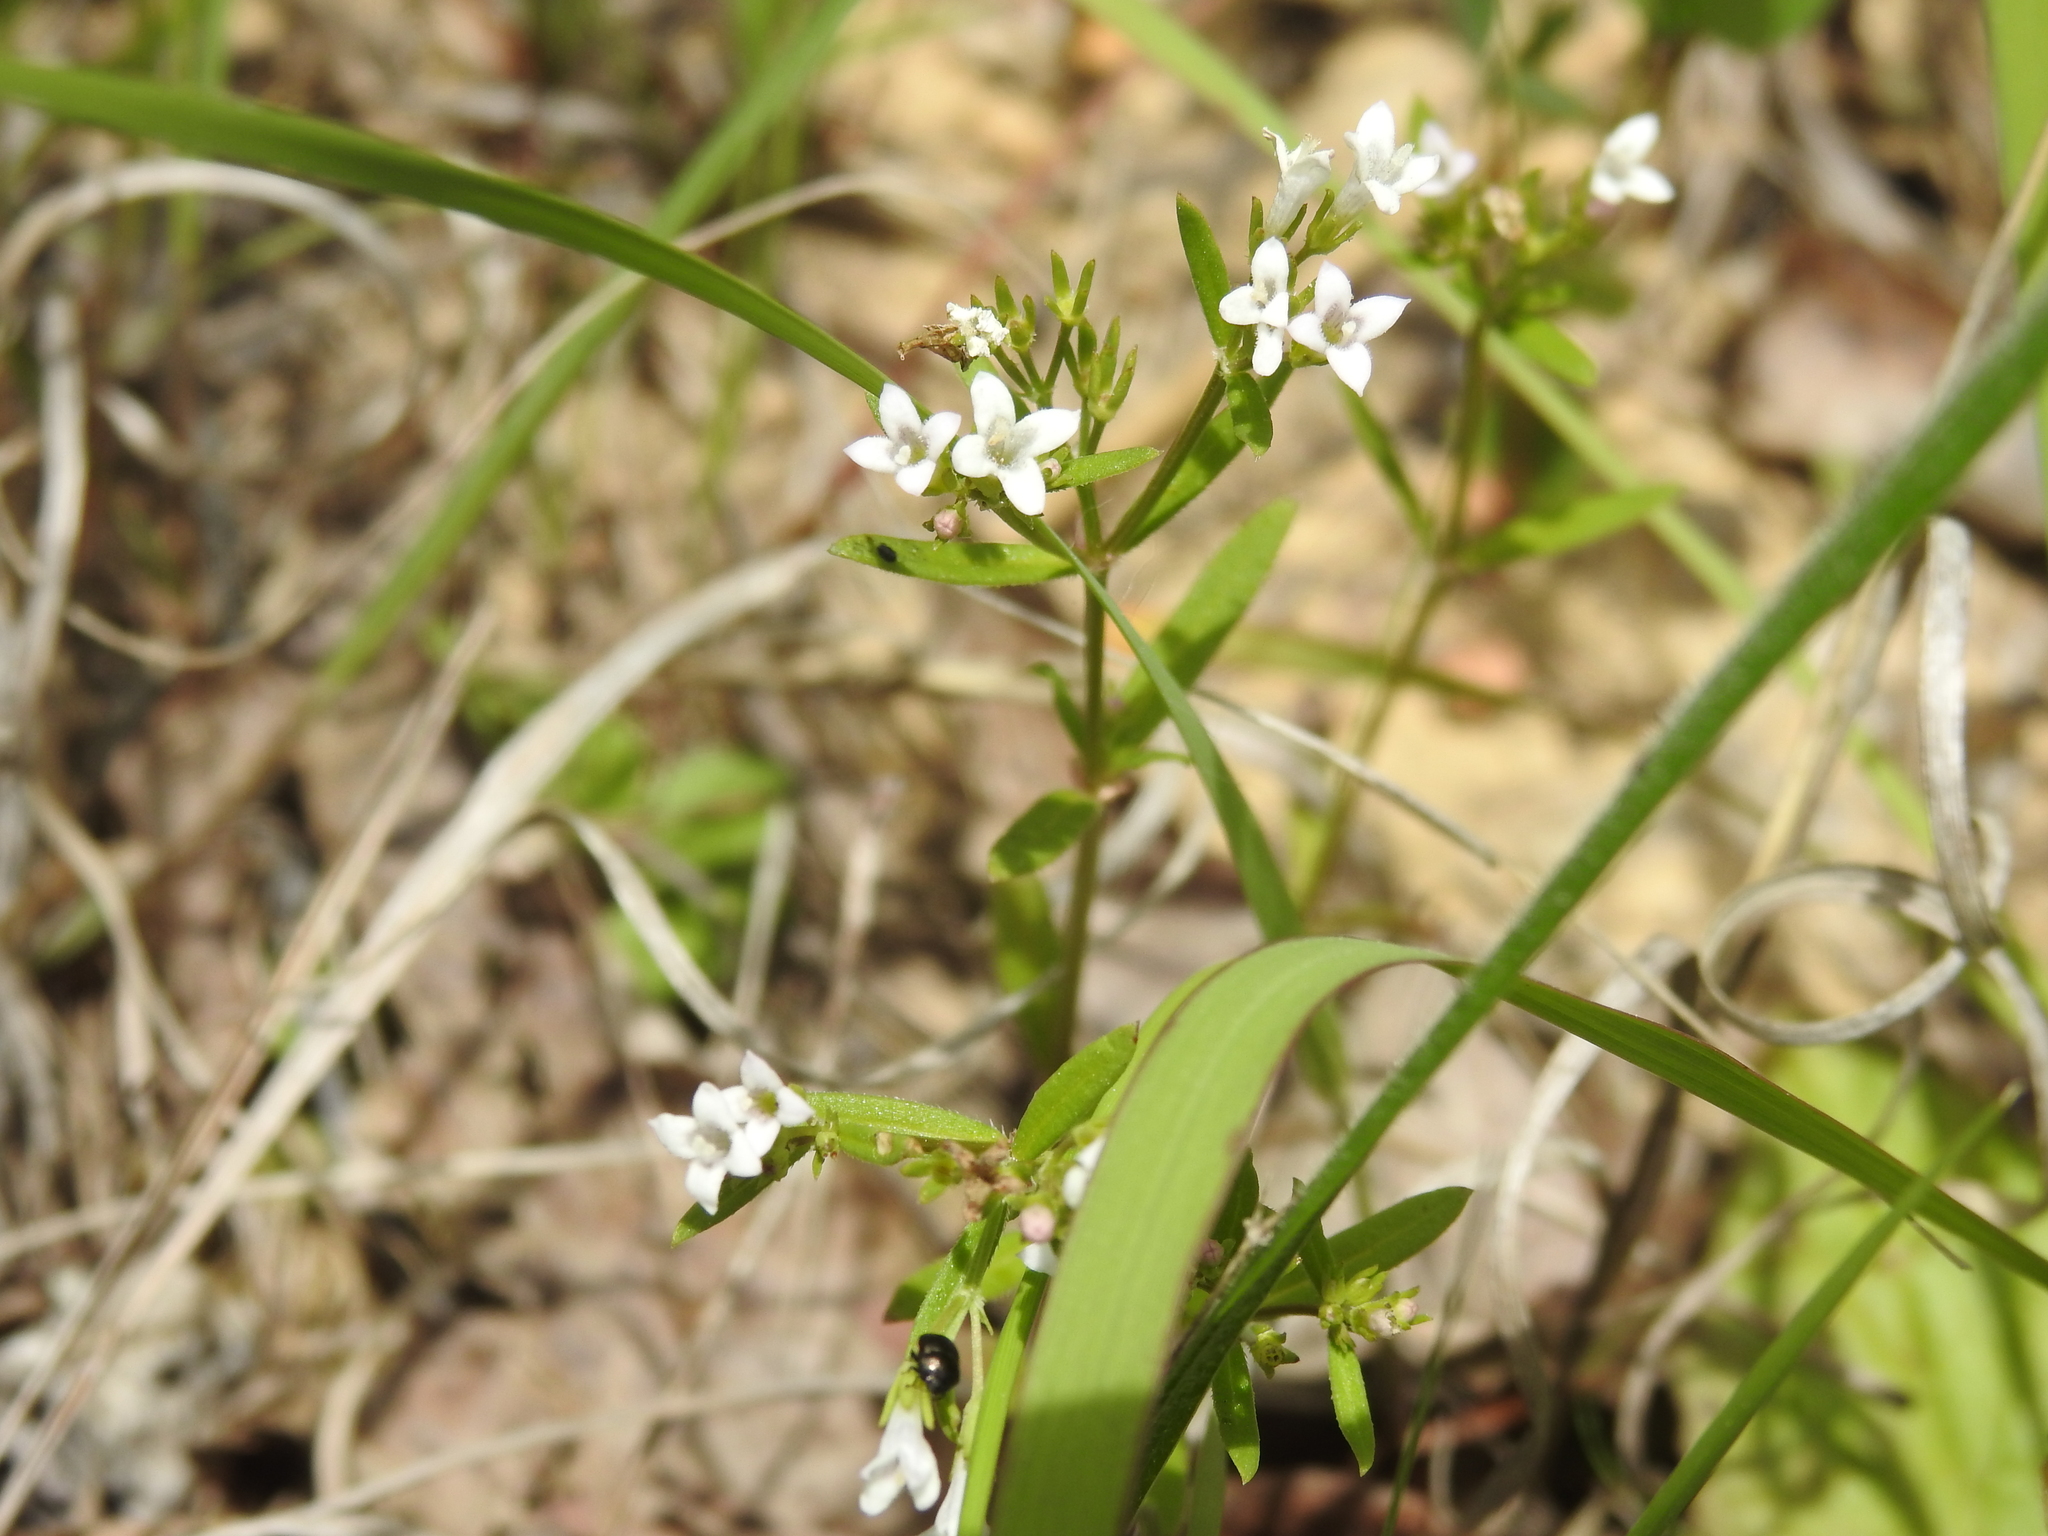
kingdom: Plantae
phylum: Tracheophyta
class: Magnoliopsida
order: Gentianales
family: Rubiaceae
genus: Houstonia
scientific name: Houstonia longifolia
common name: Long-leaved bluets
